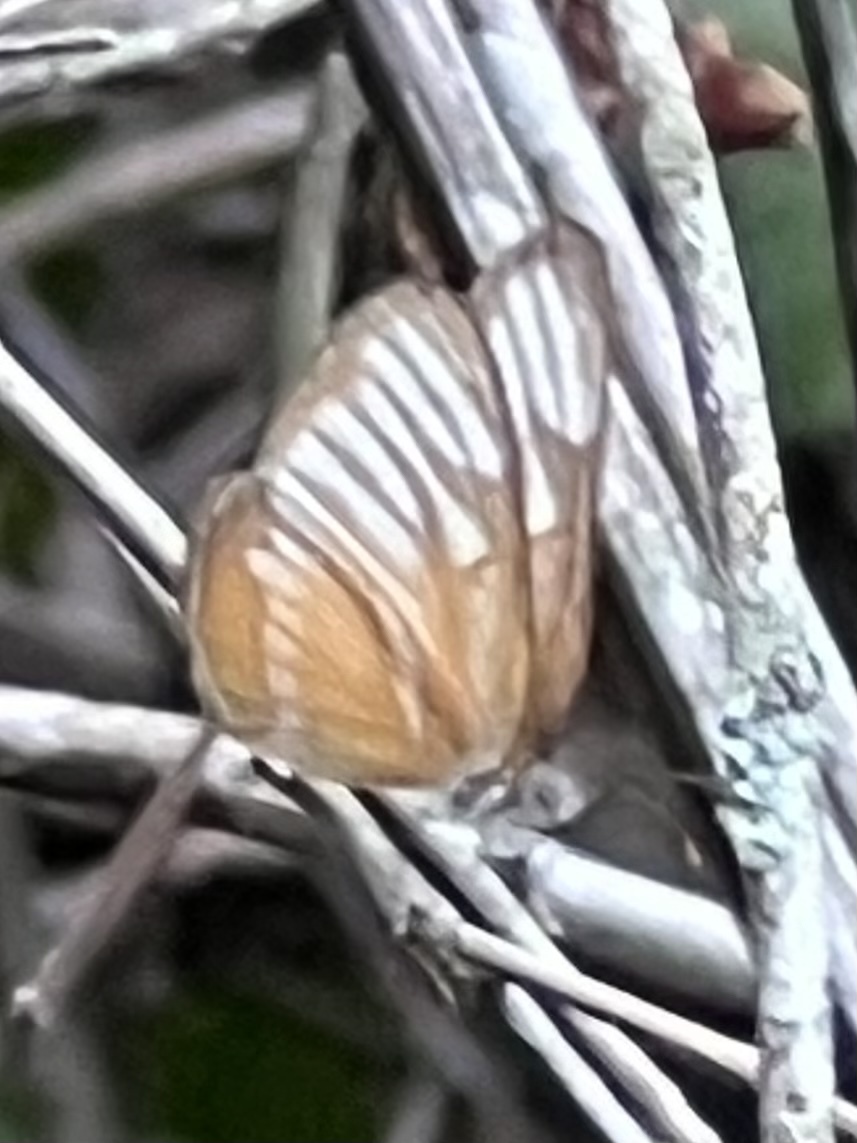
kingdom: Animalia
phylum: Arthropoda
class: Insecta
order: Lepidoptera
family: Nymphalidae
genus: Mestra
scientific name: Mestra hersilia
